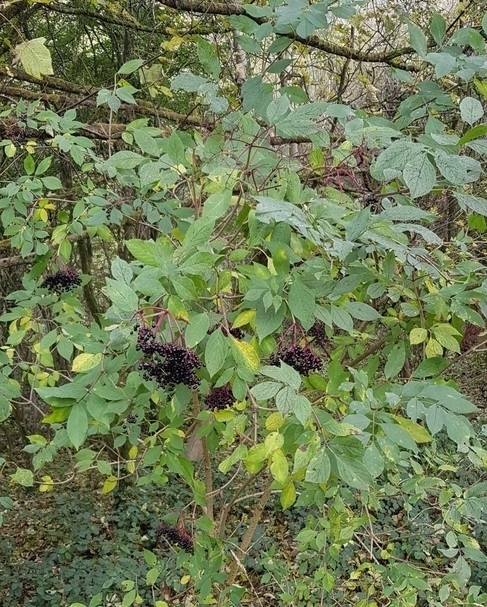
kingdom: Plantae
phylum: Tracheophyta
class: Magnoliopsida
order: Dipsacales
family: Viburnaceae
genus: Sambucus
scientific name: Sambucus nigra
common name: Elder
